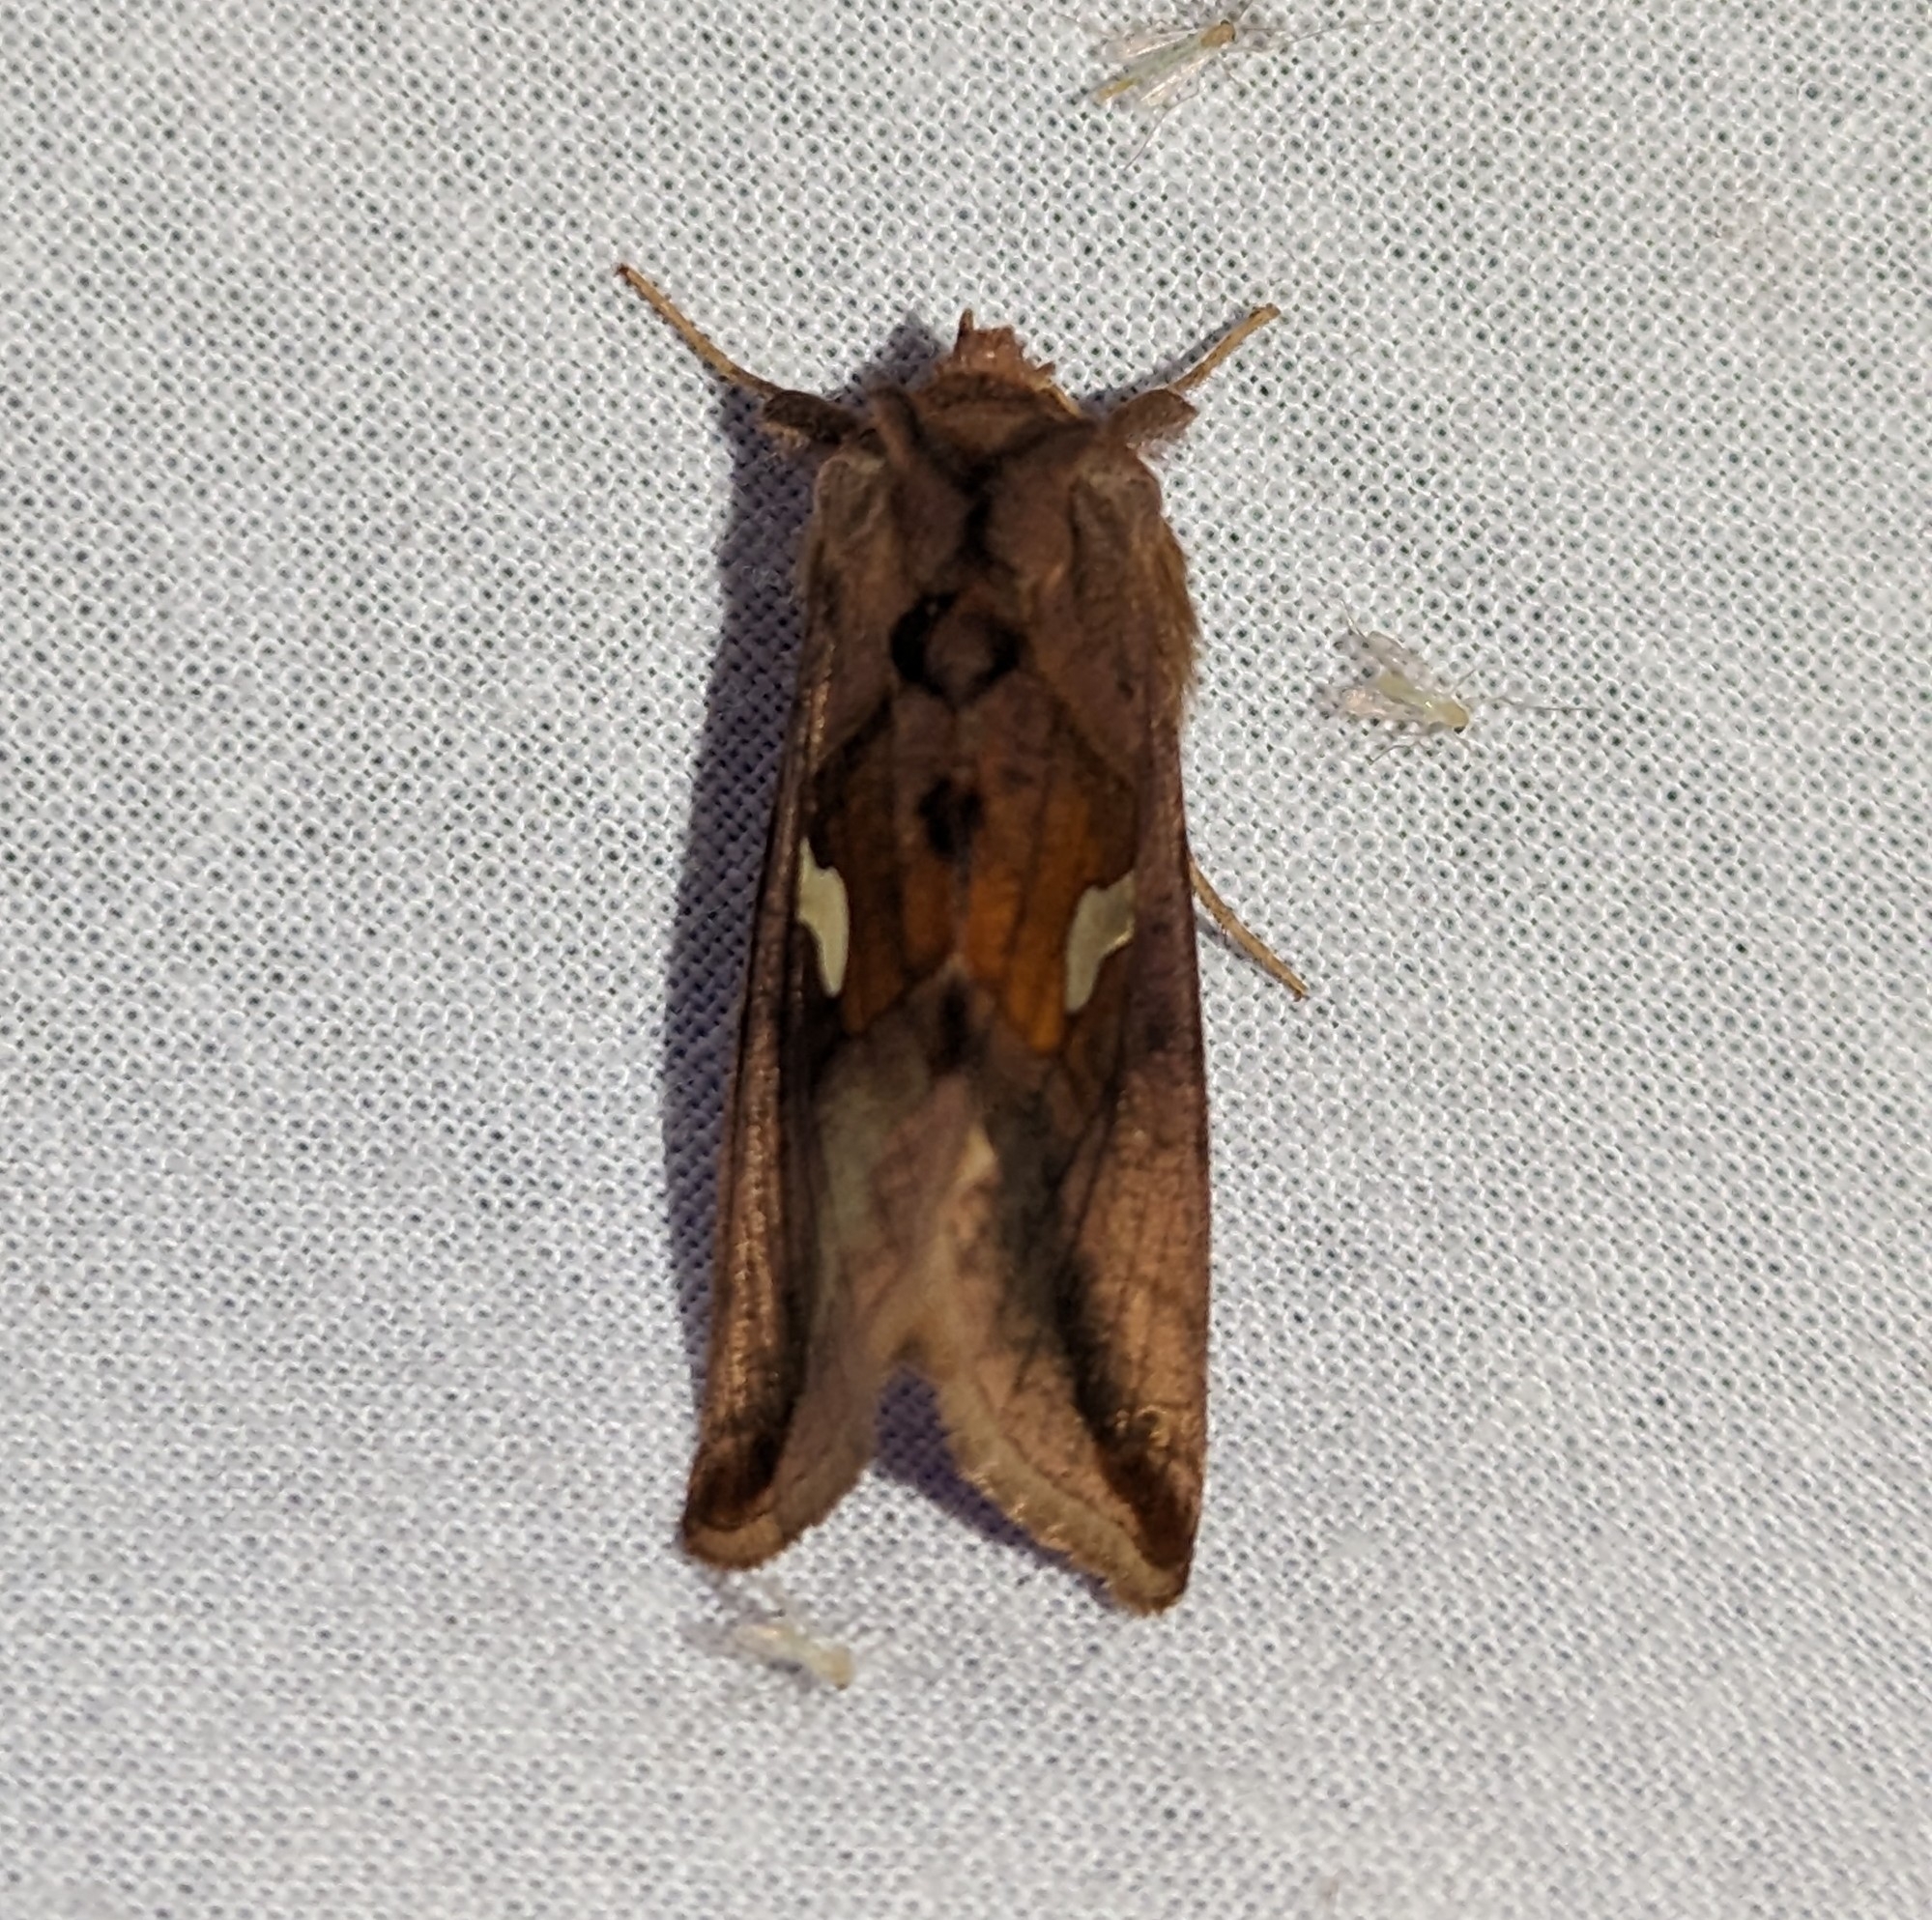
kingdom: Animalia
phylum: Arthropoda
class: Insecta
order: Lepidoptera
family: Noctuidae
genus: Autographa
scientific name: Autographa metallica
